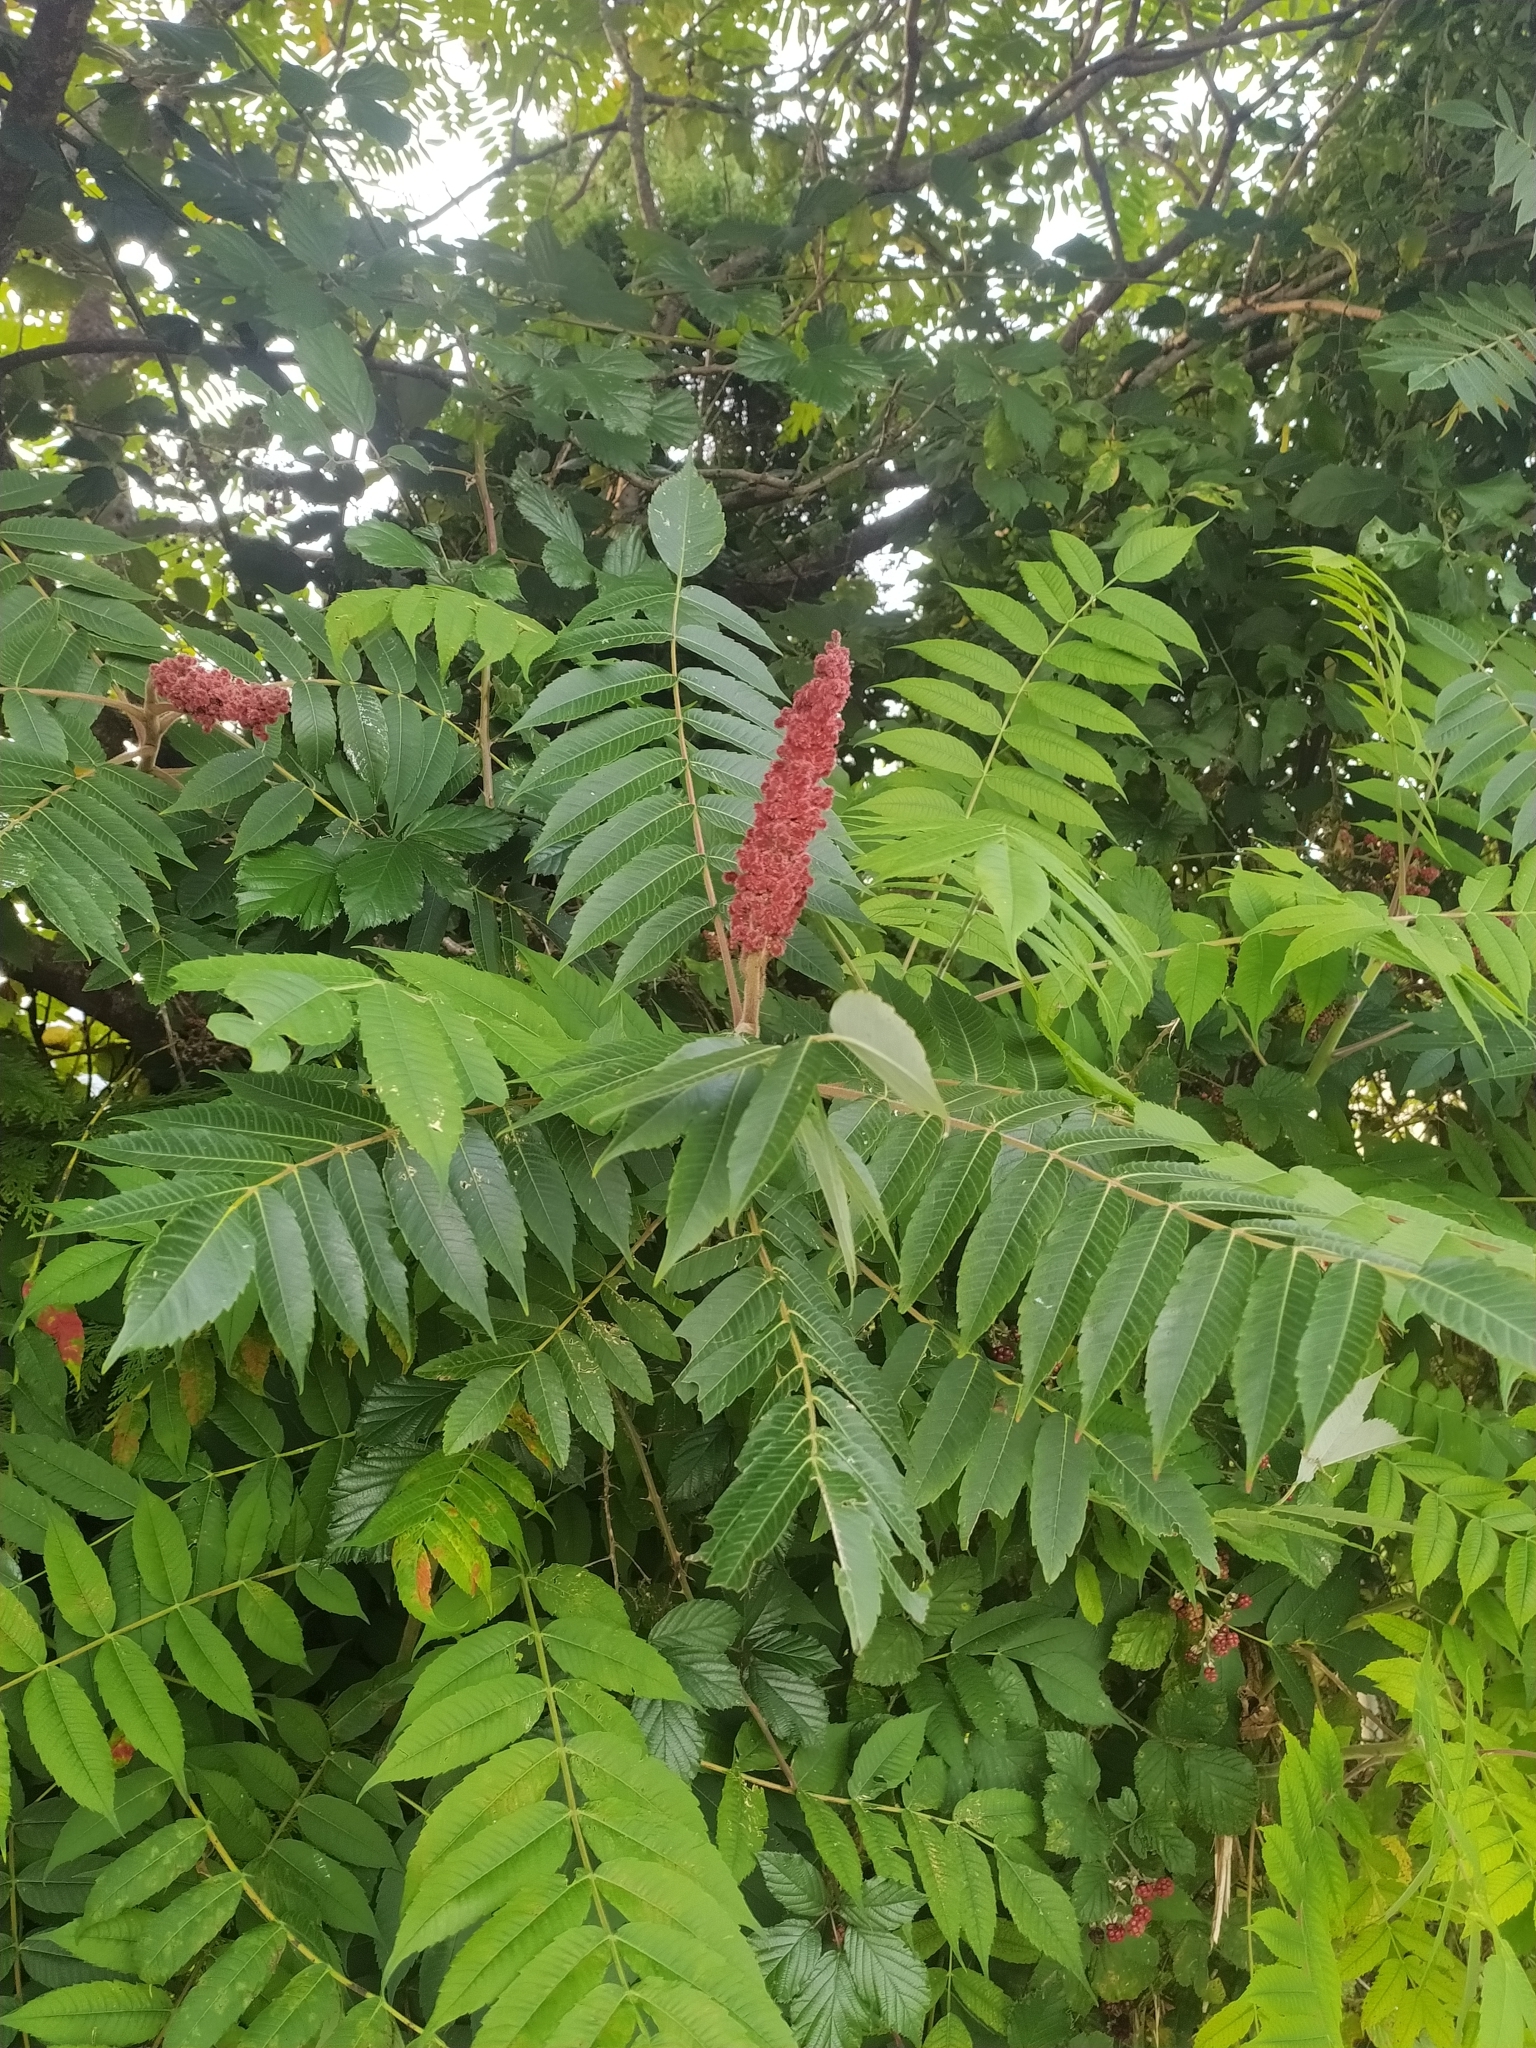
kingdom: Plantae
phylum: Tracheophyta
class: Magnoliopsida
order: Sapindales
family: Anacardiaceae
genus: Rhus
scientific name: Rhus typhina
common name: Staghorn sumac
